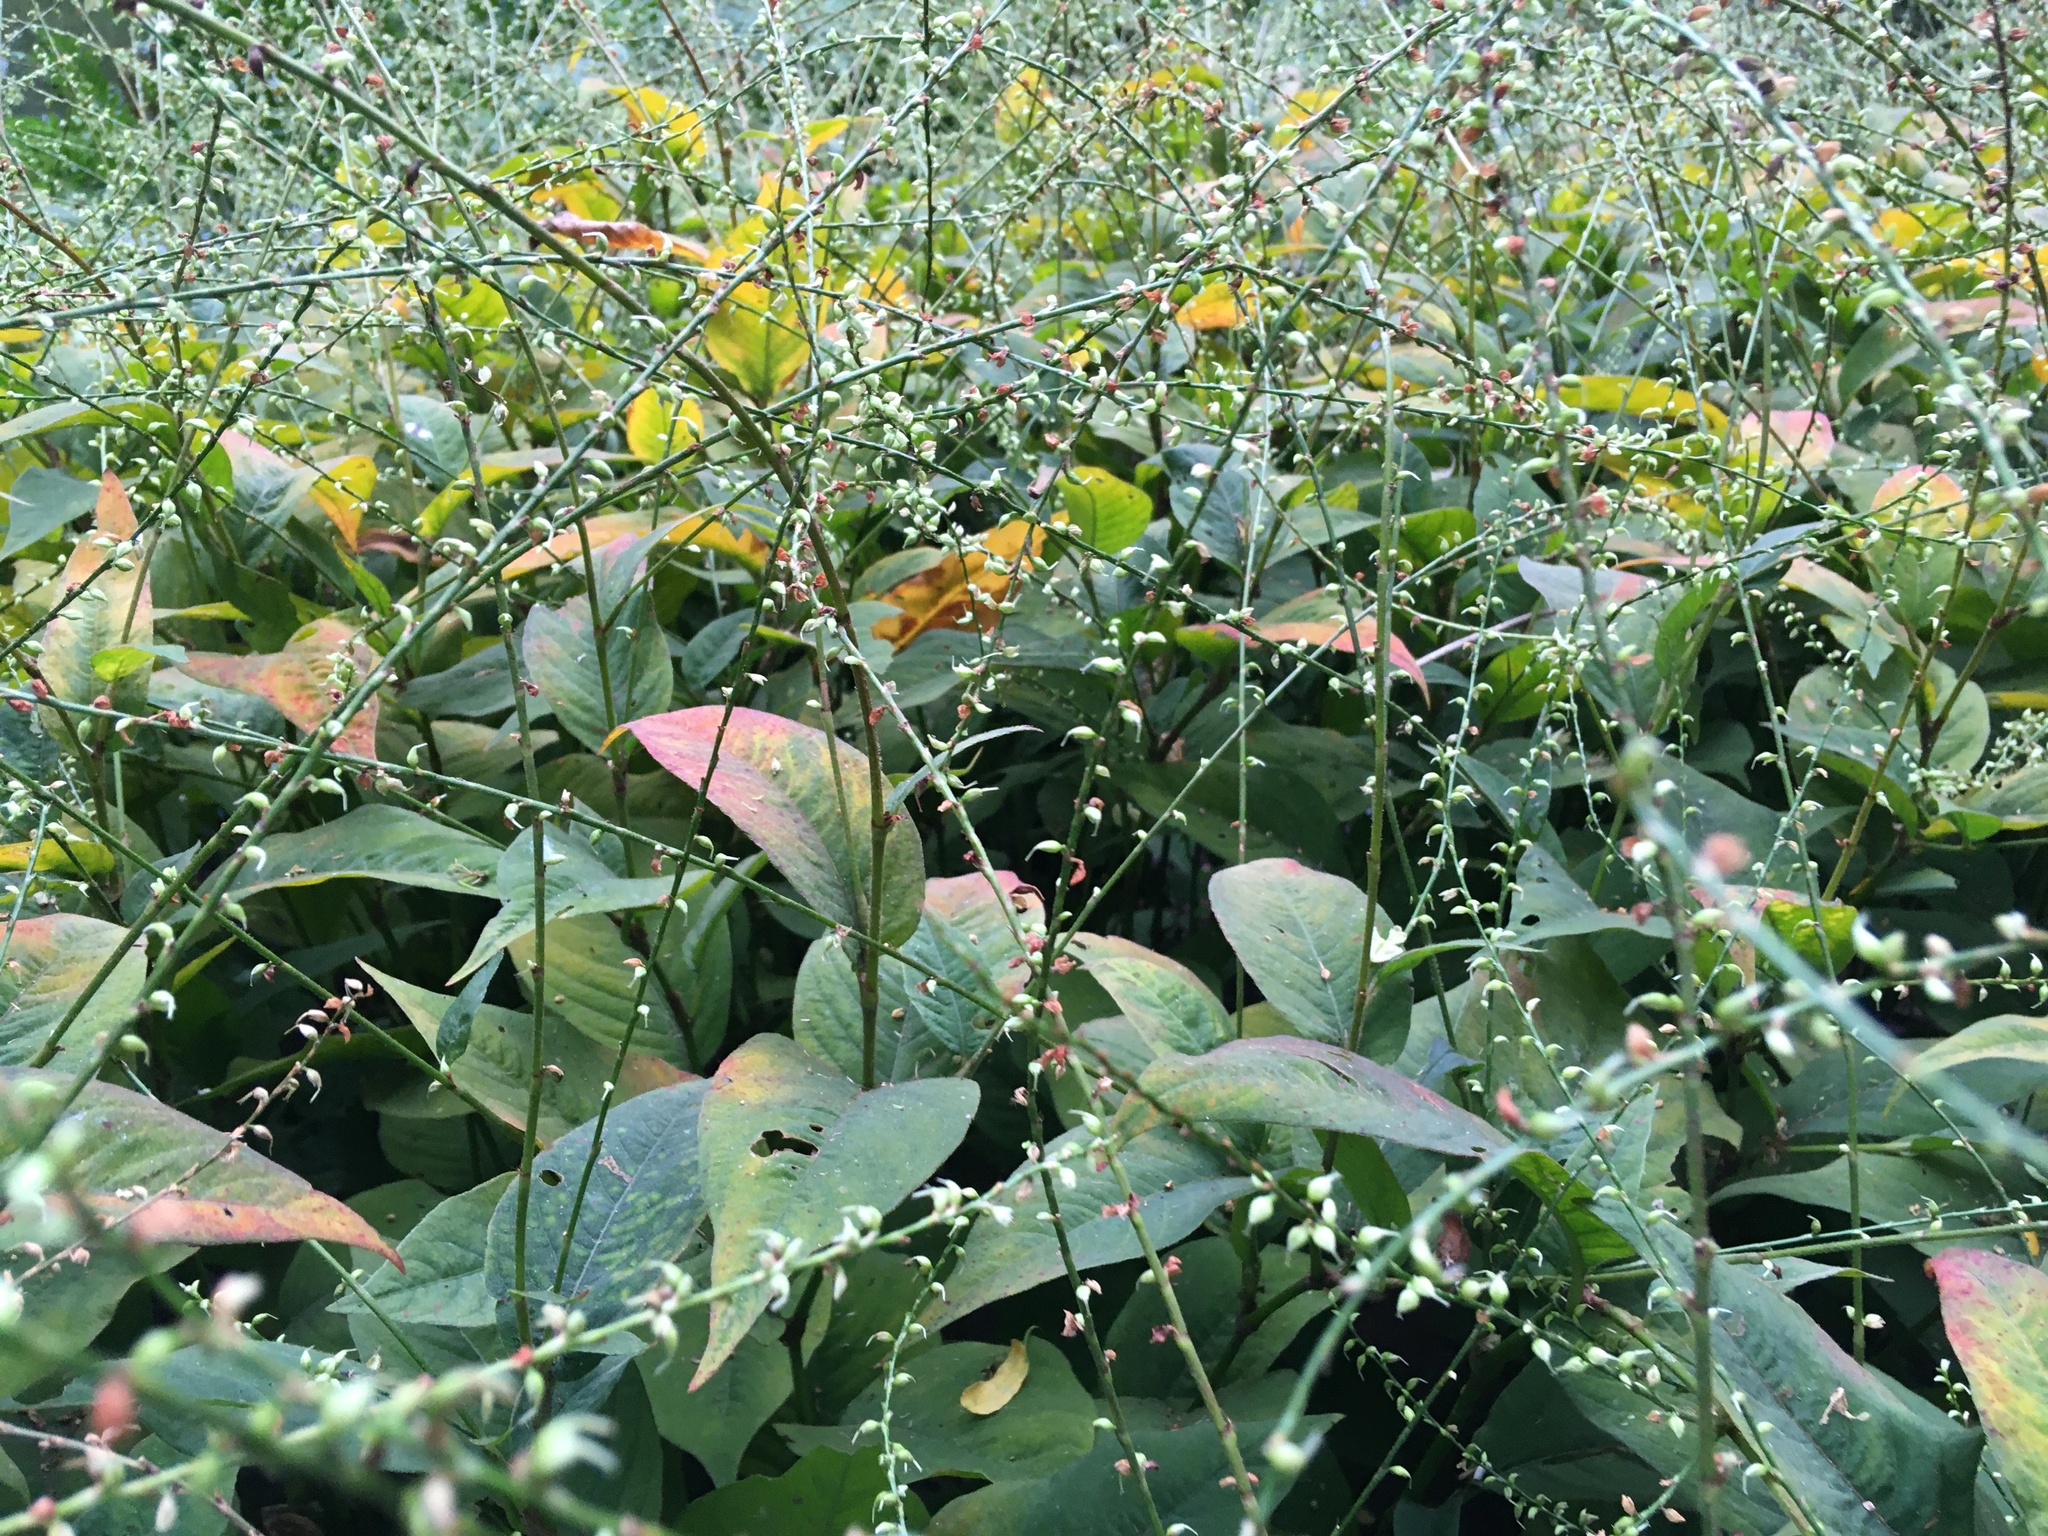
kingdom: Plantae
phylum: Tracheophyta
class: Magnoliopsida
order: Caryophyllales
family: Polygonaceae
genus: Persicaria
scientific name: Persicaria virginiana
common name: Jumpseed
